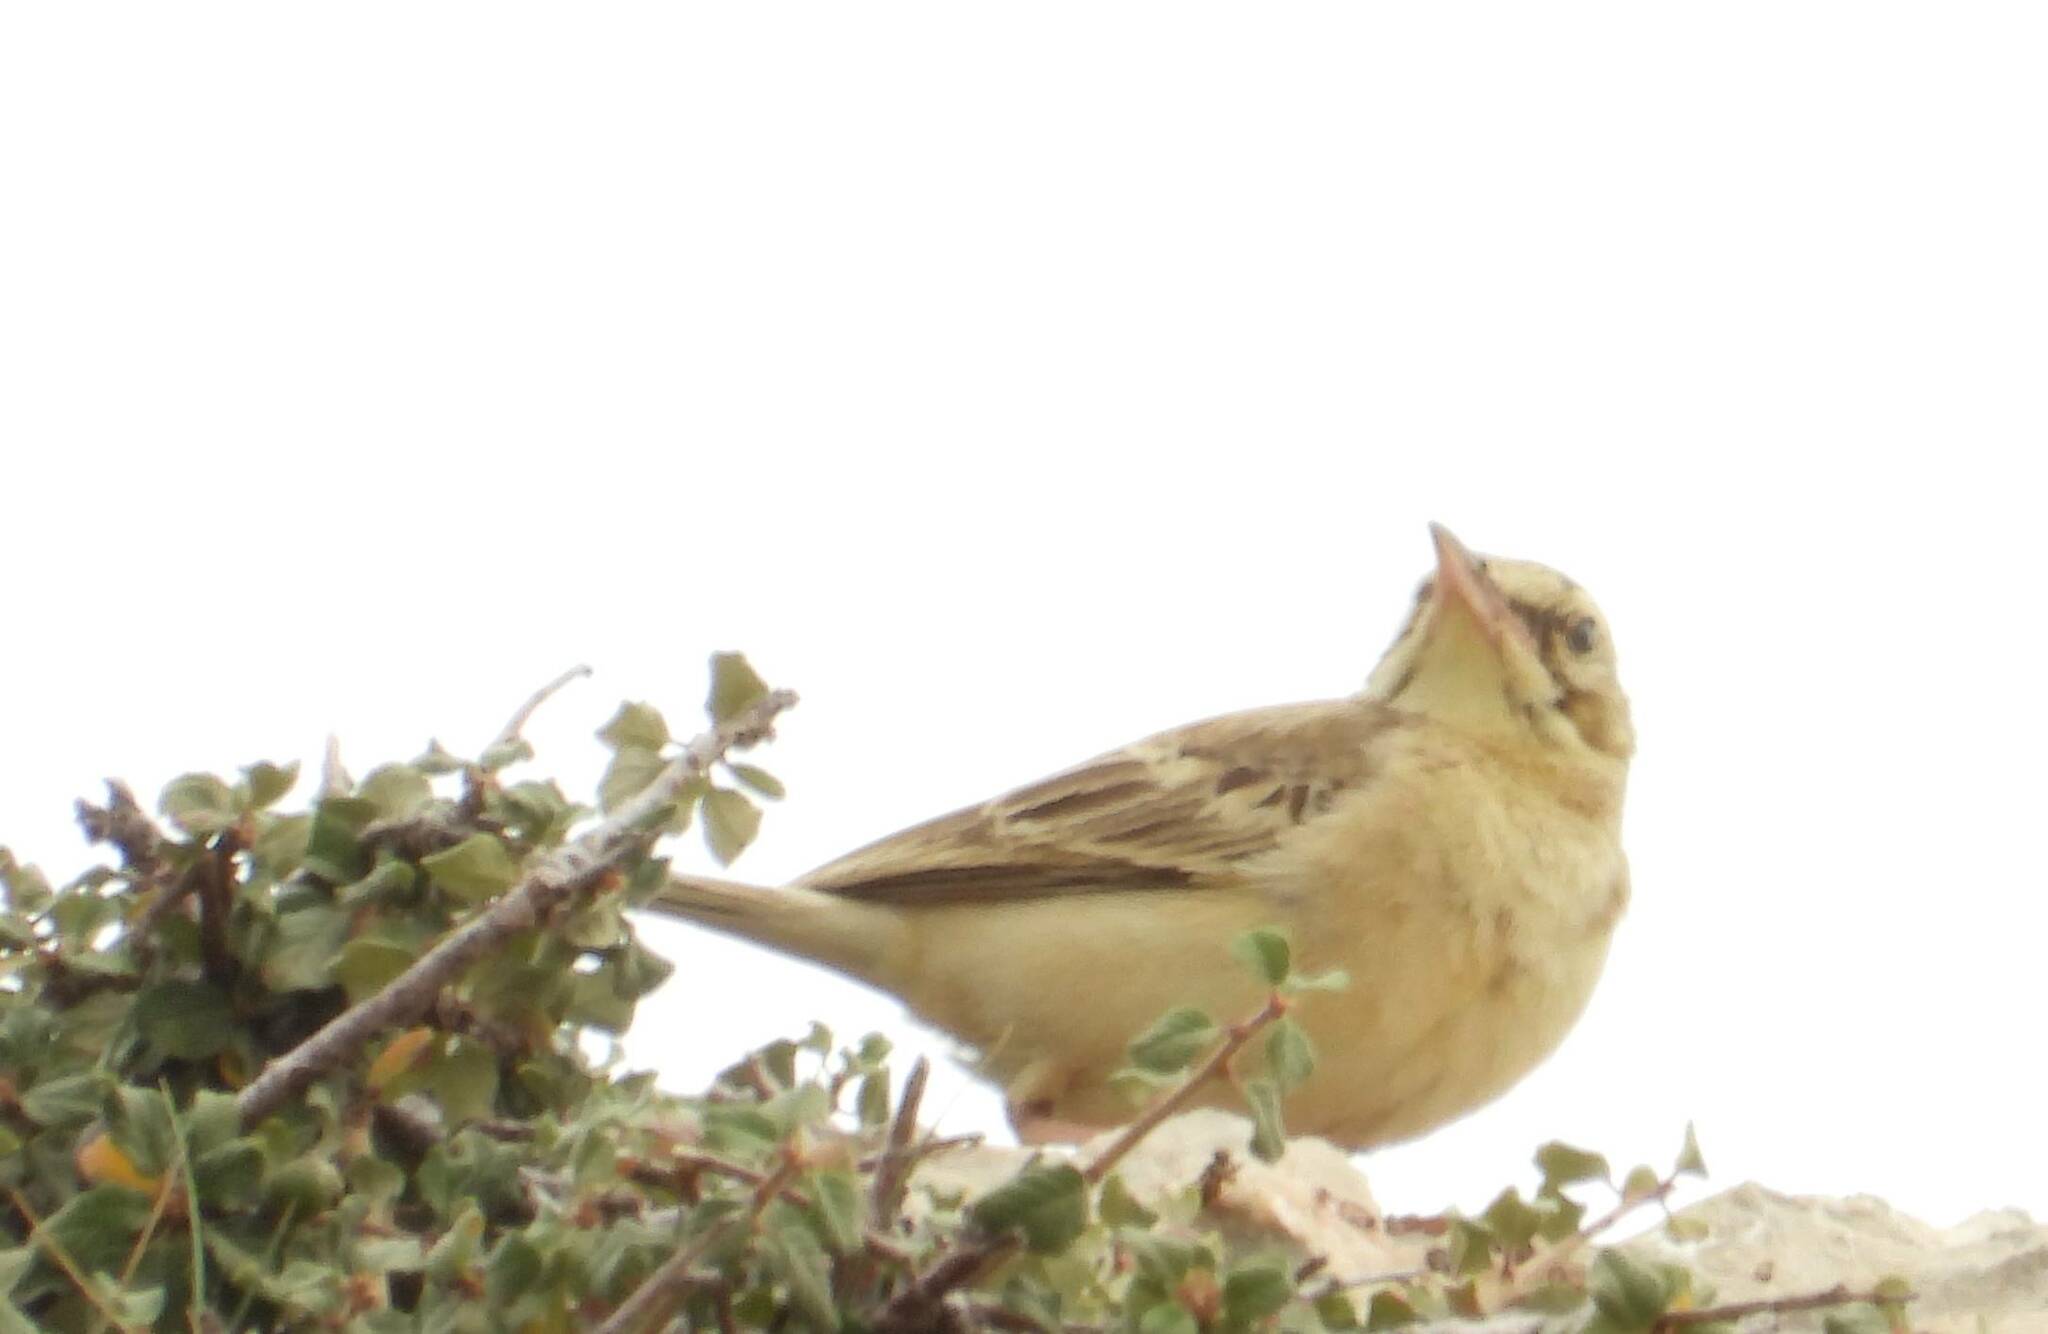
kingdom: Animalia
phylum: Chordata
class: Aves
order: Passeriformes
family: Motacillidae
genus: Anthus
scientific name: Anthus campestris
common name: Tawny pipit
